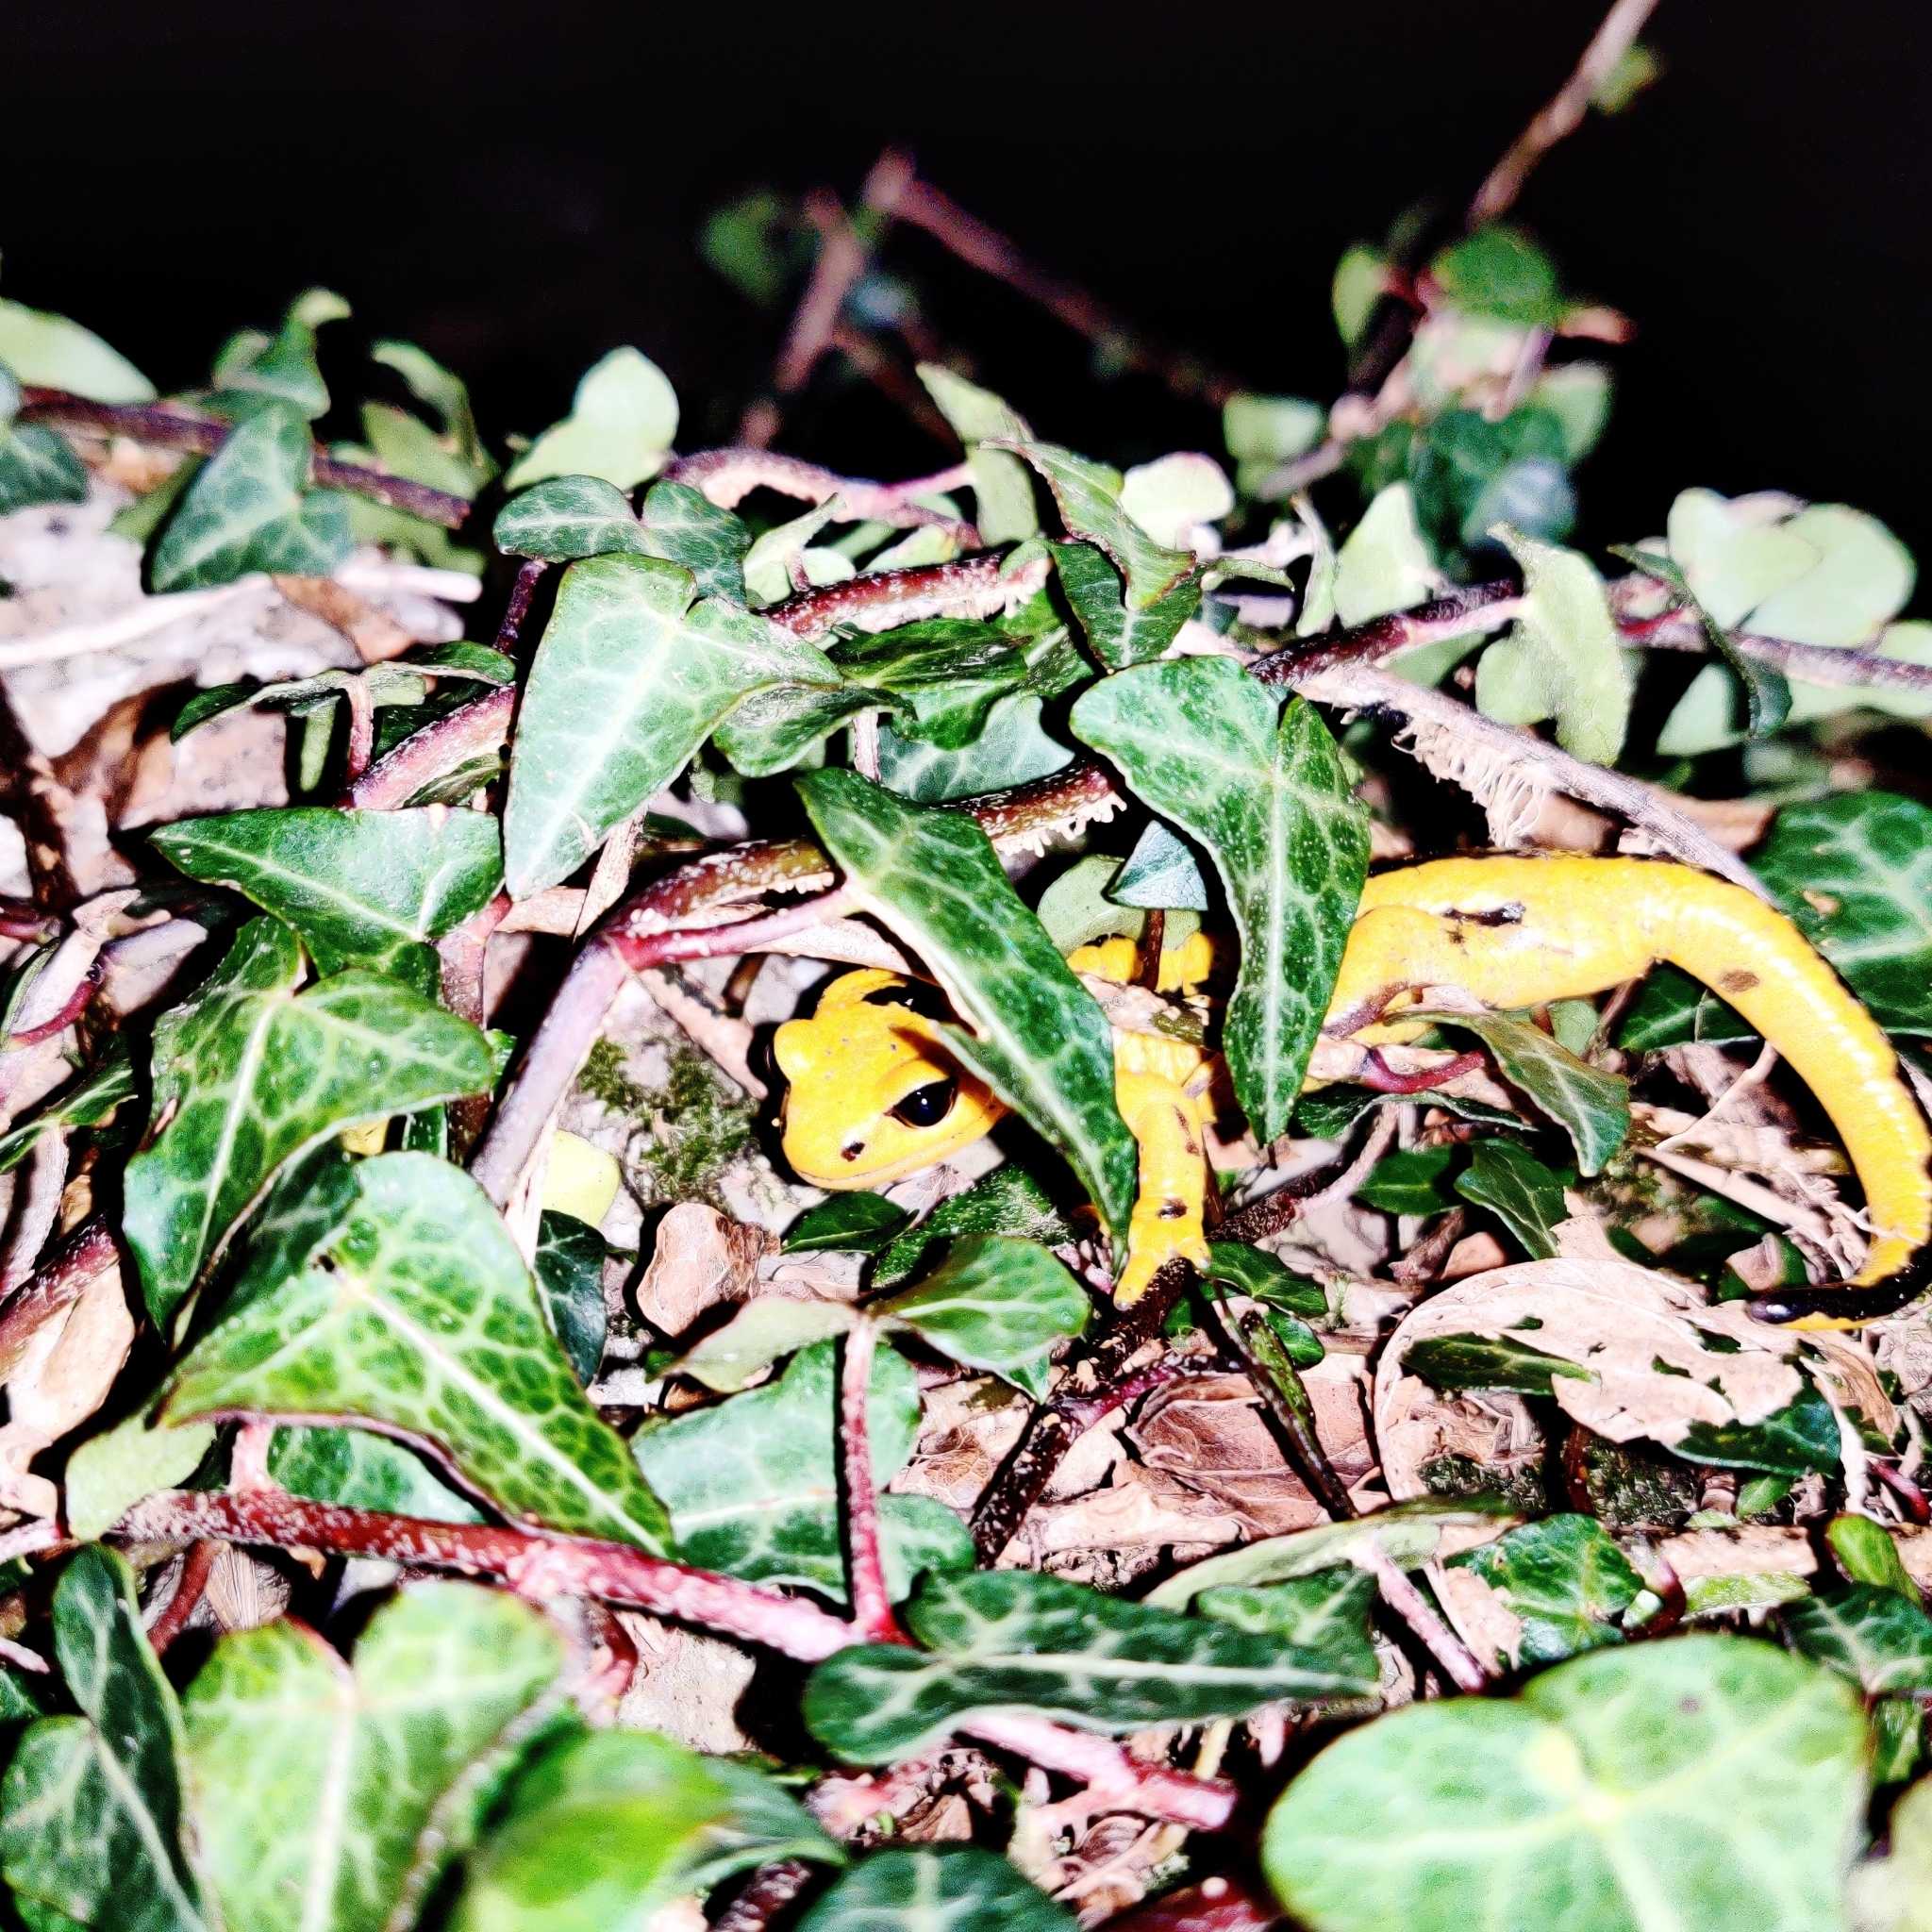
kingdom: Animalia
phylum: Chordata
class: Amphibia
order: Caudata
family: Salamandridae
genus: Salamandra
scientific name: Salamandra salamandra
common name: Fire salamander
